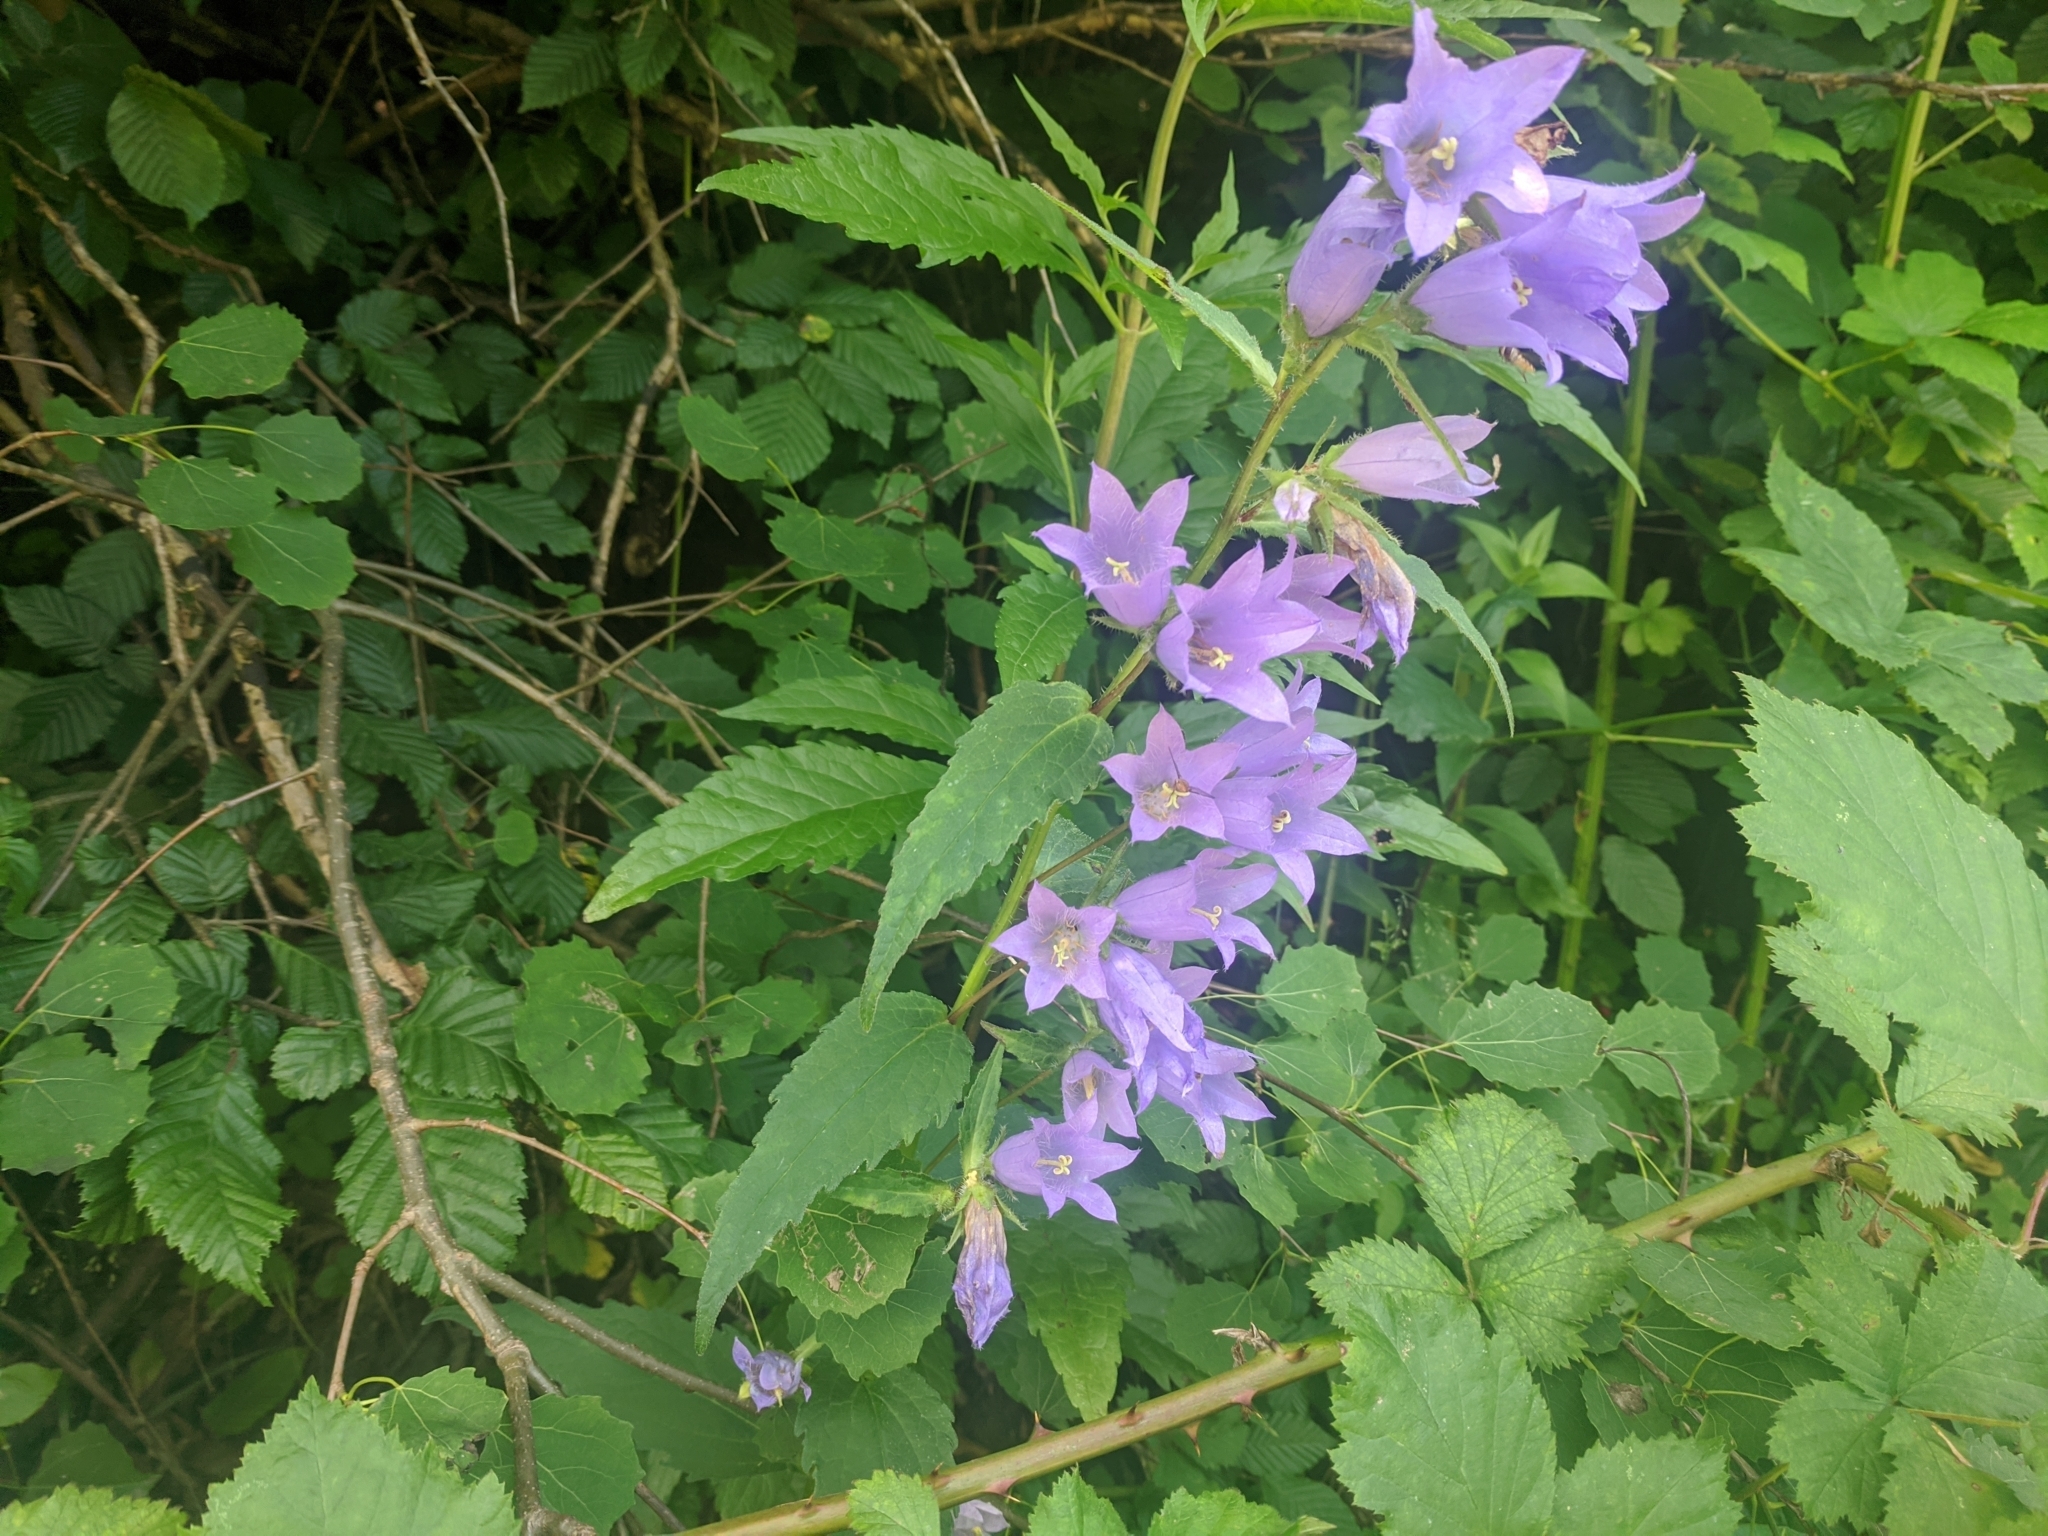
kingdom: Plantae
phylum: Tracheophyta
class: Magnoliopsida
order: Asterales
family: Campanulaceae
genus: Campanula
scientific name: Campanula trachelium
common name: Nettle-leaved bellflower
